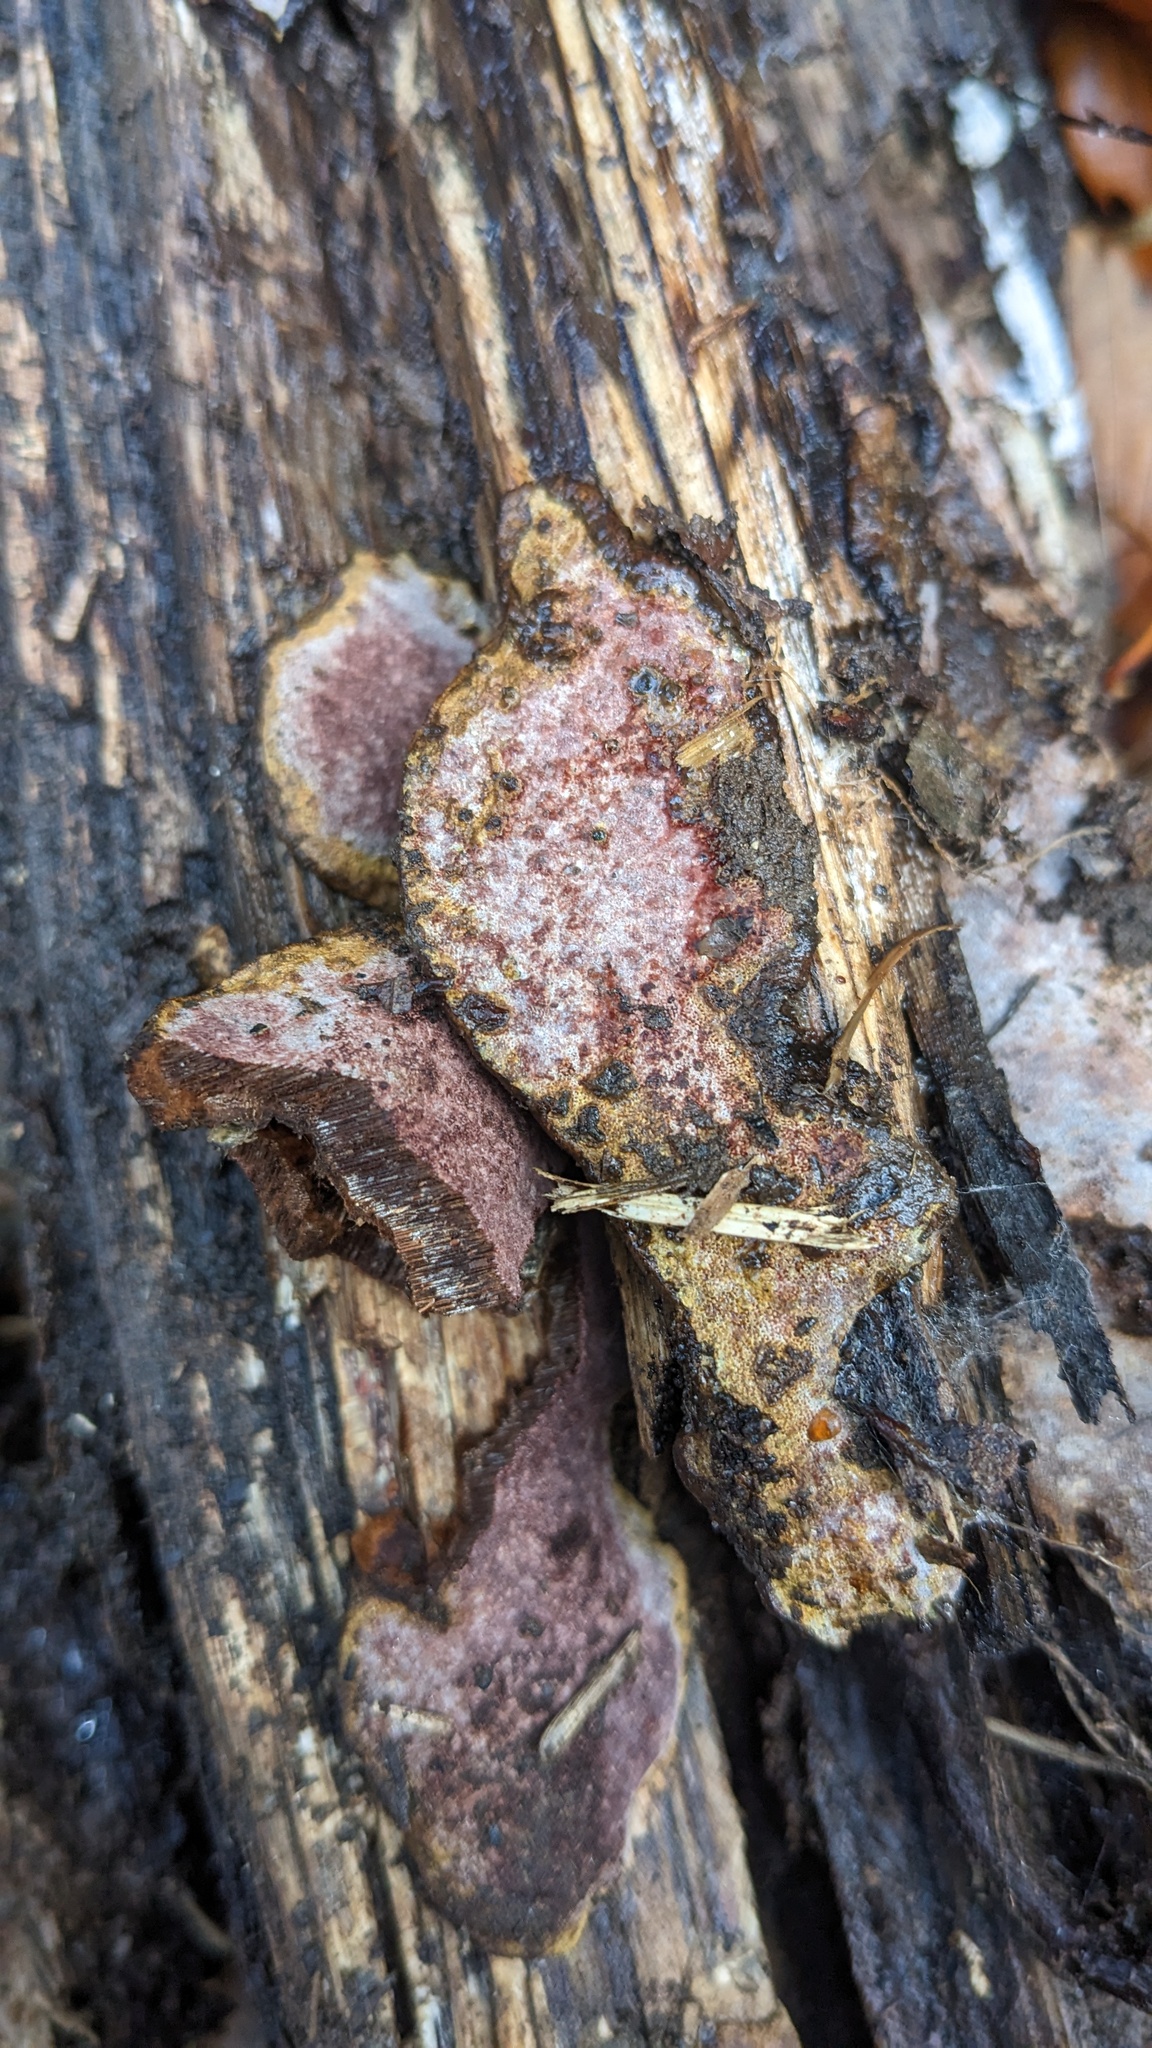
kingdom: Fungi
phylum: Basidiomycota
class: Agaricomycetes
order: Polyporales
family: Polyporaceae
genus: Abundisporus
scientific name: Abundisporus pubertatis
